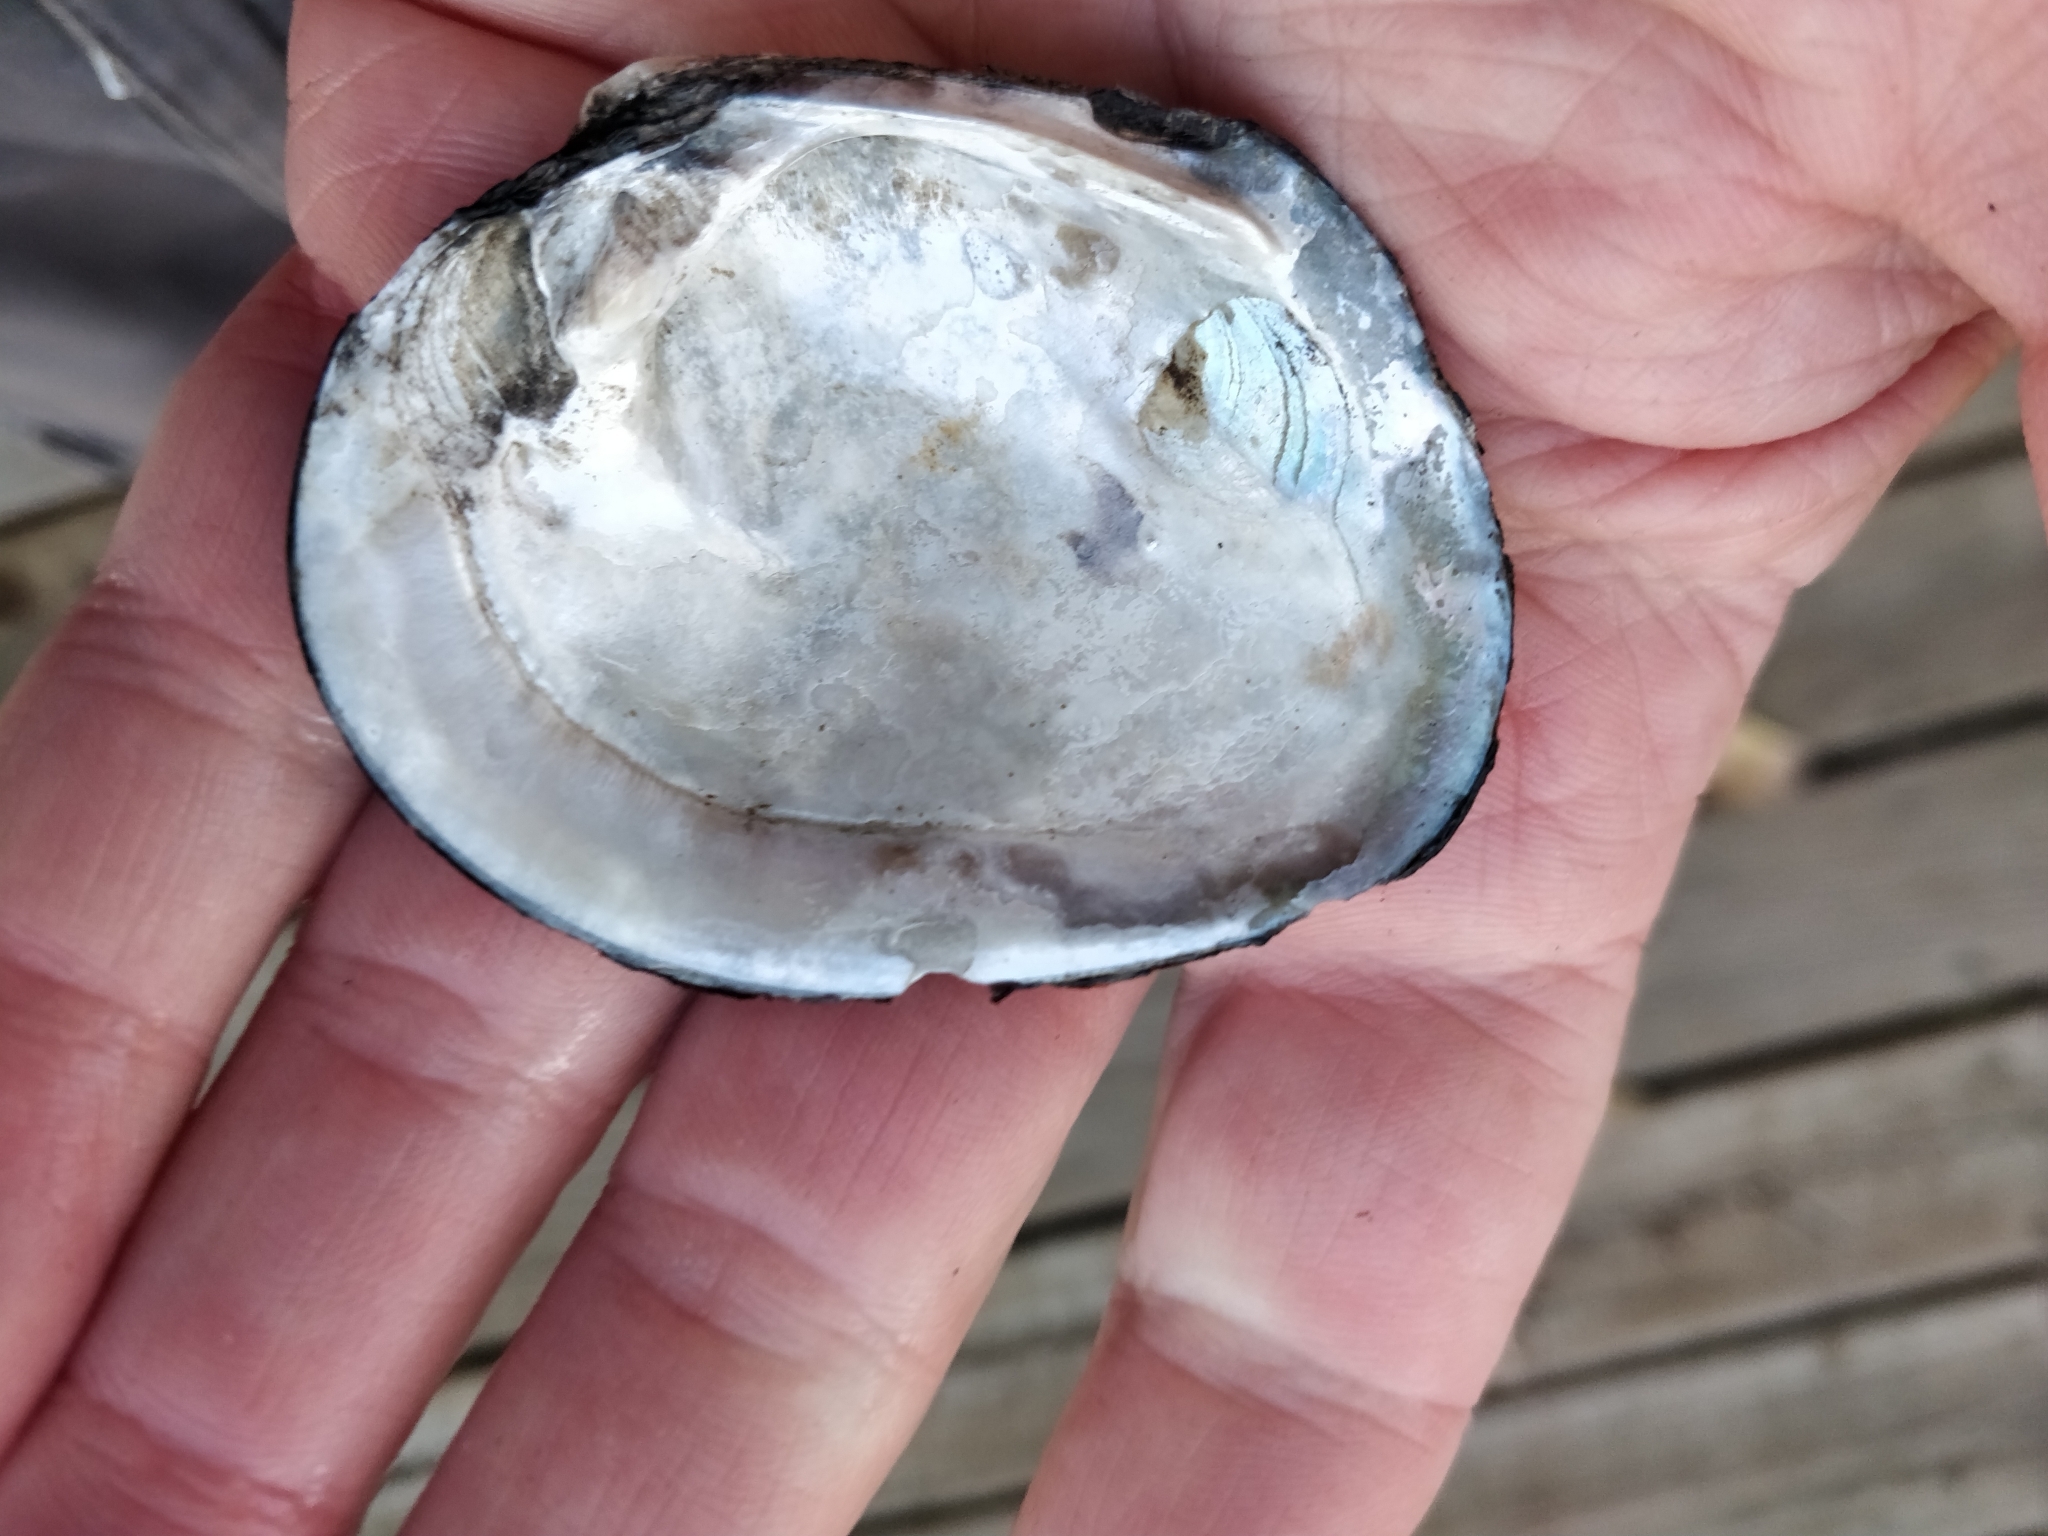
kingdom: Animalia
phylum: Mollusca
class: Bivalvia
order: Unionida
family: Unionidae
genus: Cyclonaias
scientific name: Cyclonaias pustulosa
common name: Pimpleback
